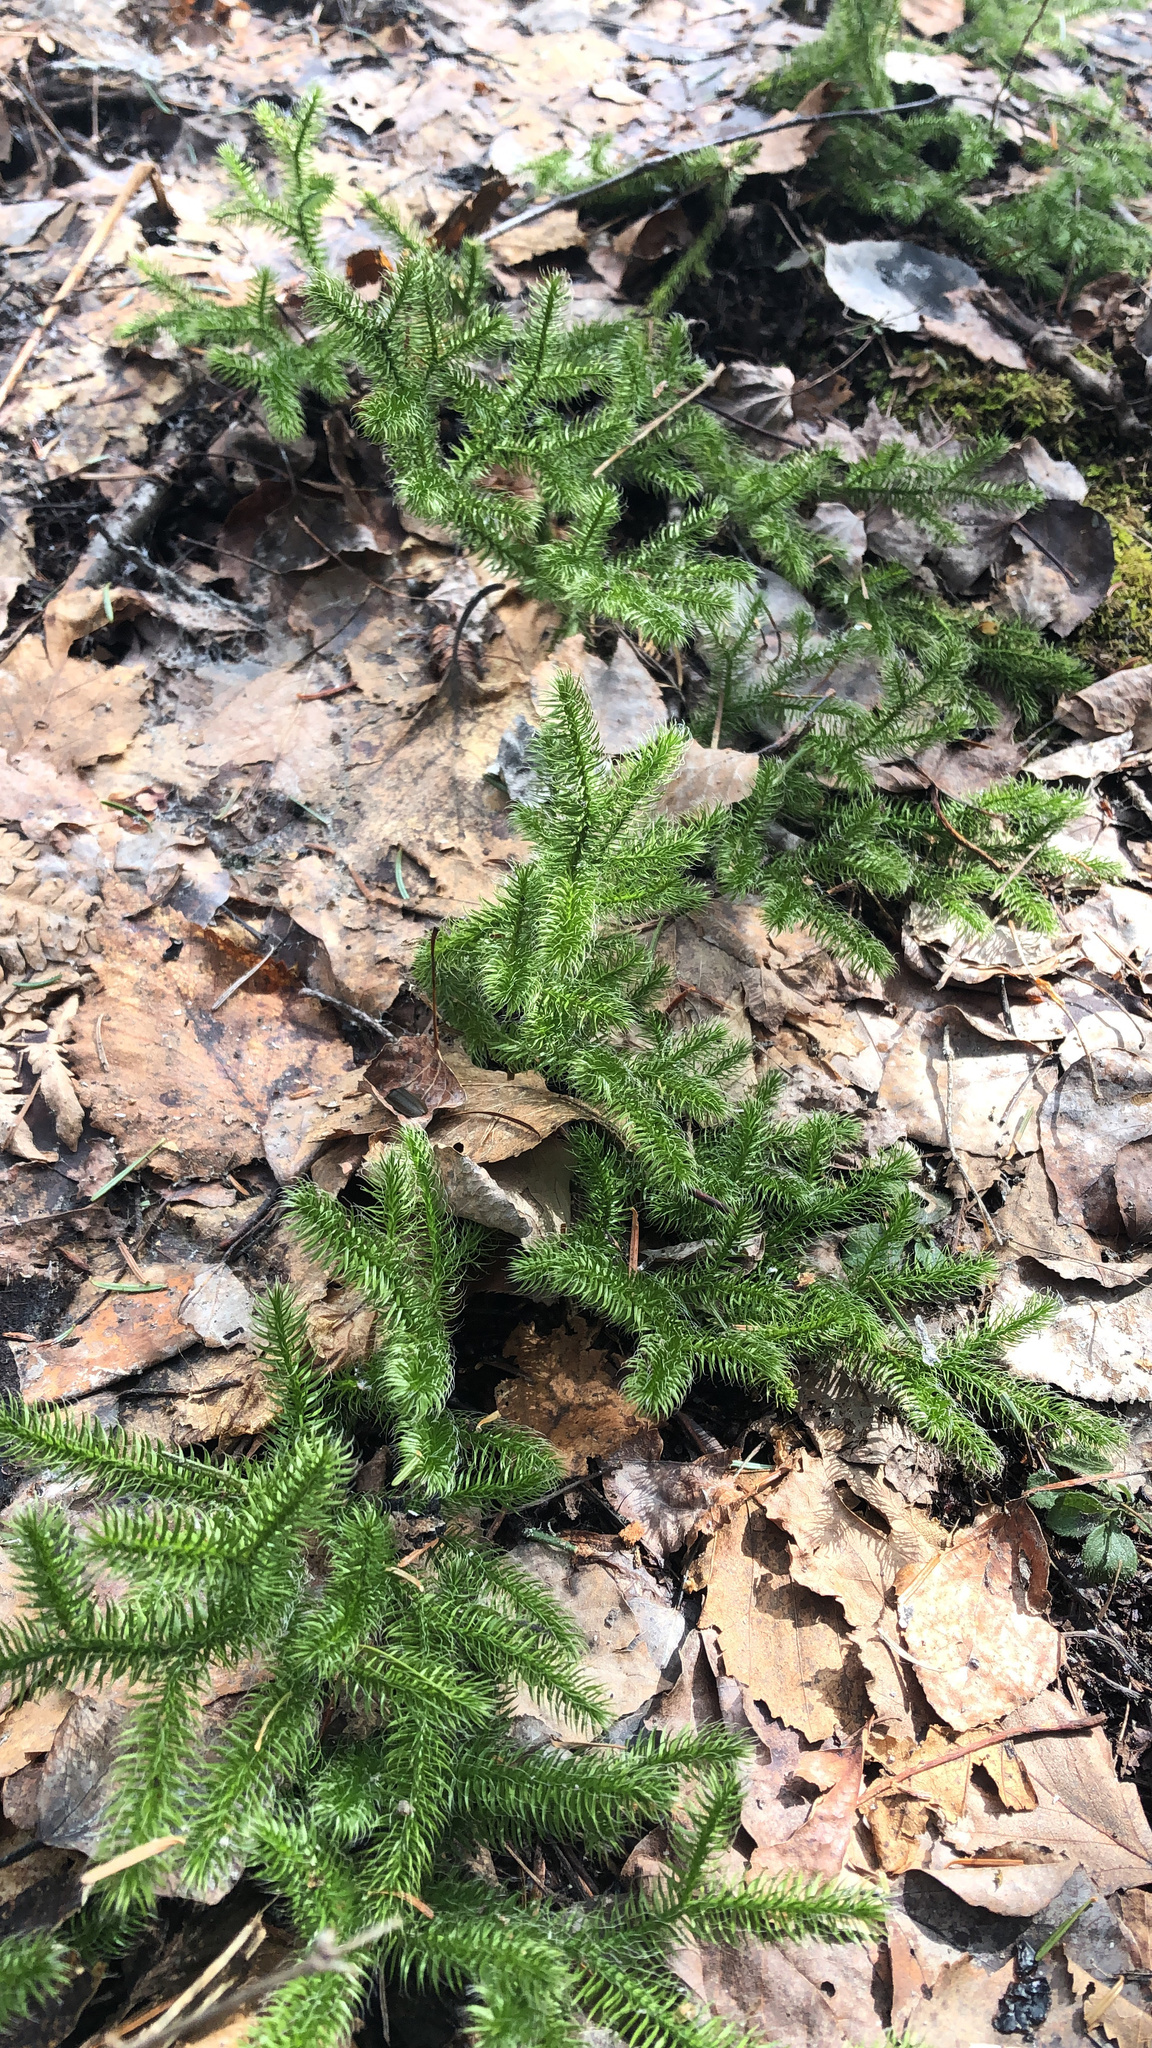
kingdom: Plantae
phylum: Tracheophyta
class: Lycopodiopsida
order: Lycopodiales
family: Lycopodiaceae
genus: Lycopodium
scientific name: Lycopodium clavatum
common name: Stag's-horn clubmoss
